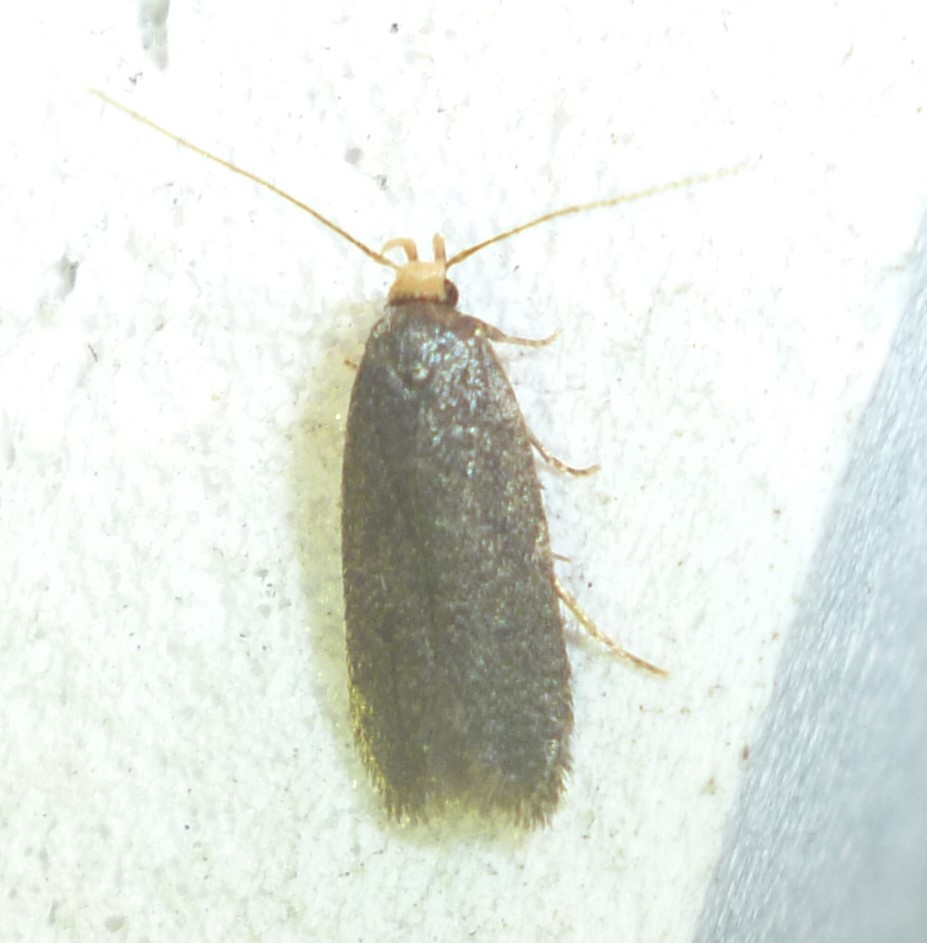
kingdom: Animalia
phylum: Arthropoda
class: Insecta
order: Lepidoptera
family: Autostichidae
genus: Glyphidocera
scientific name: Glyphidocera lithodoxa
